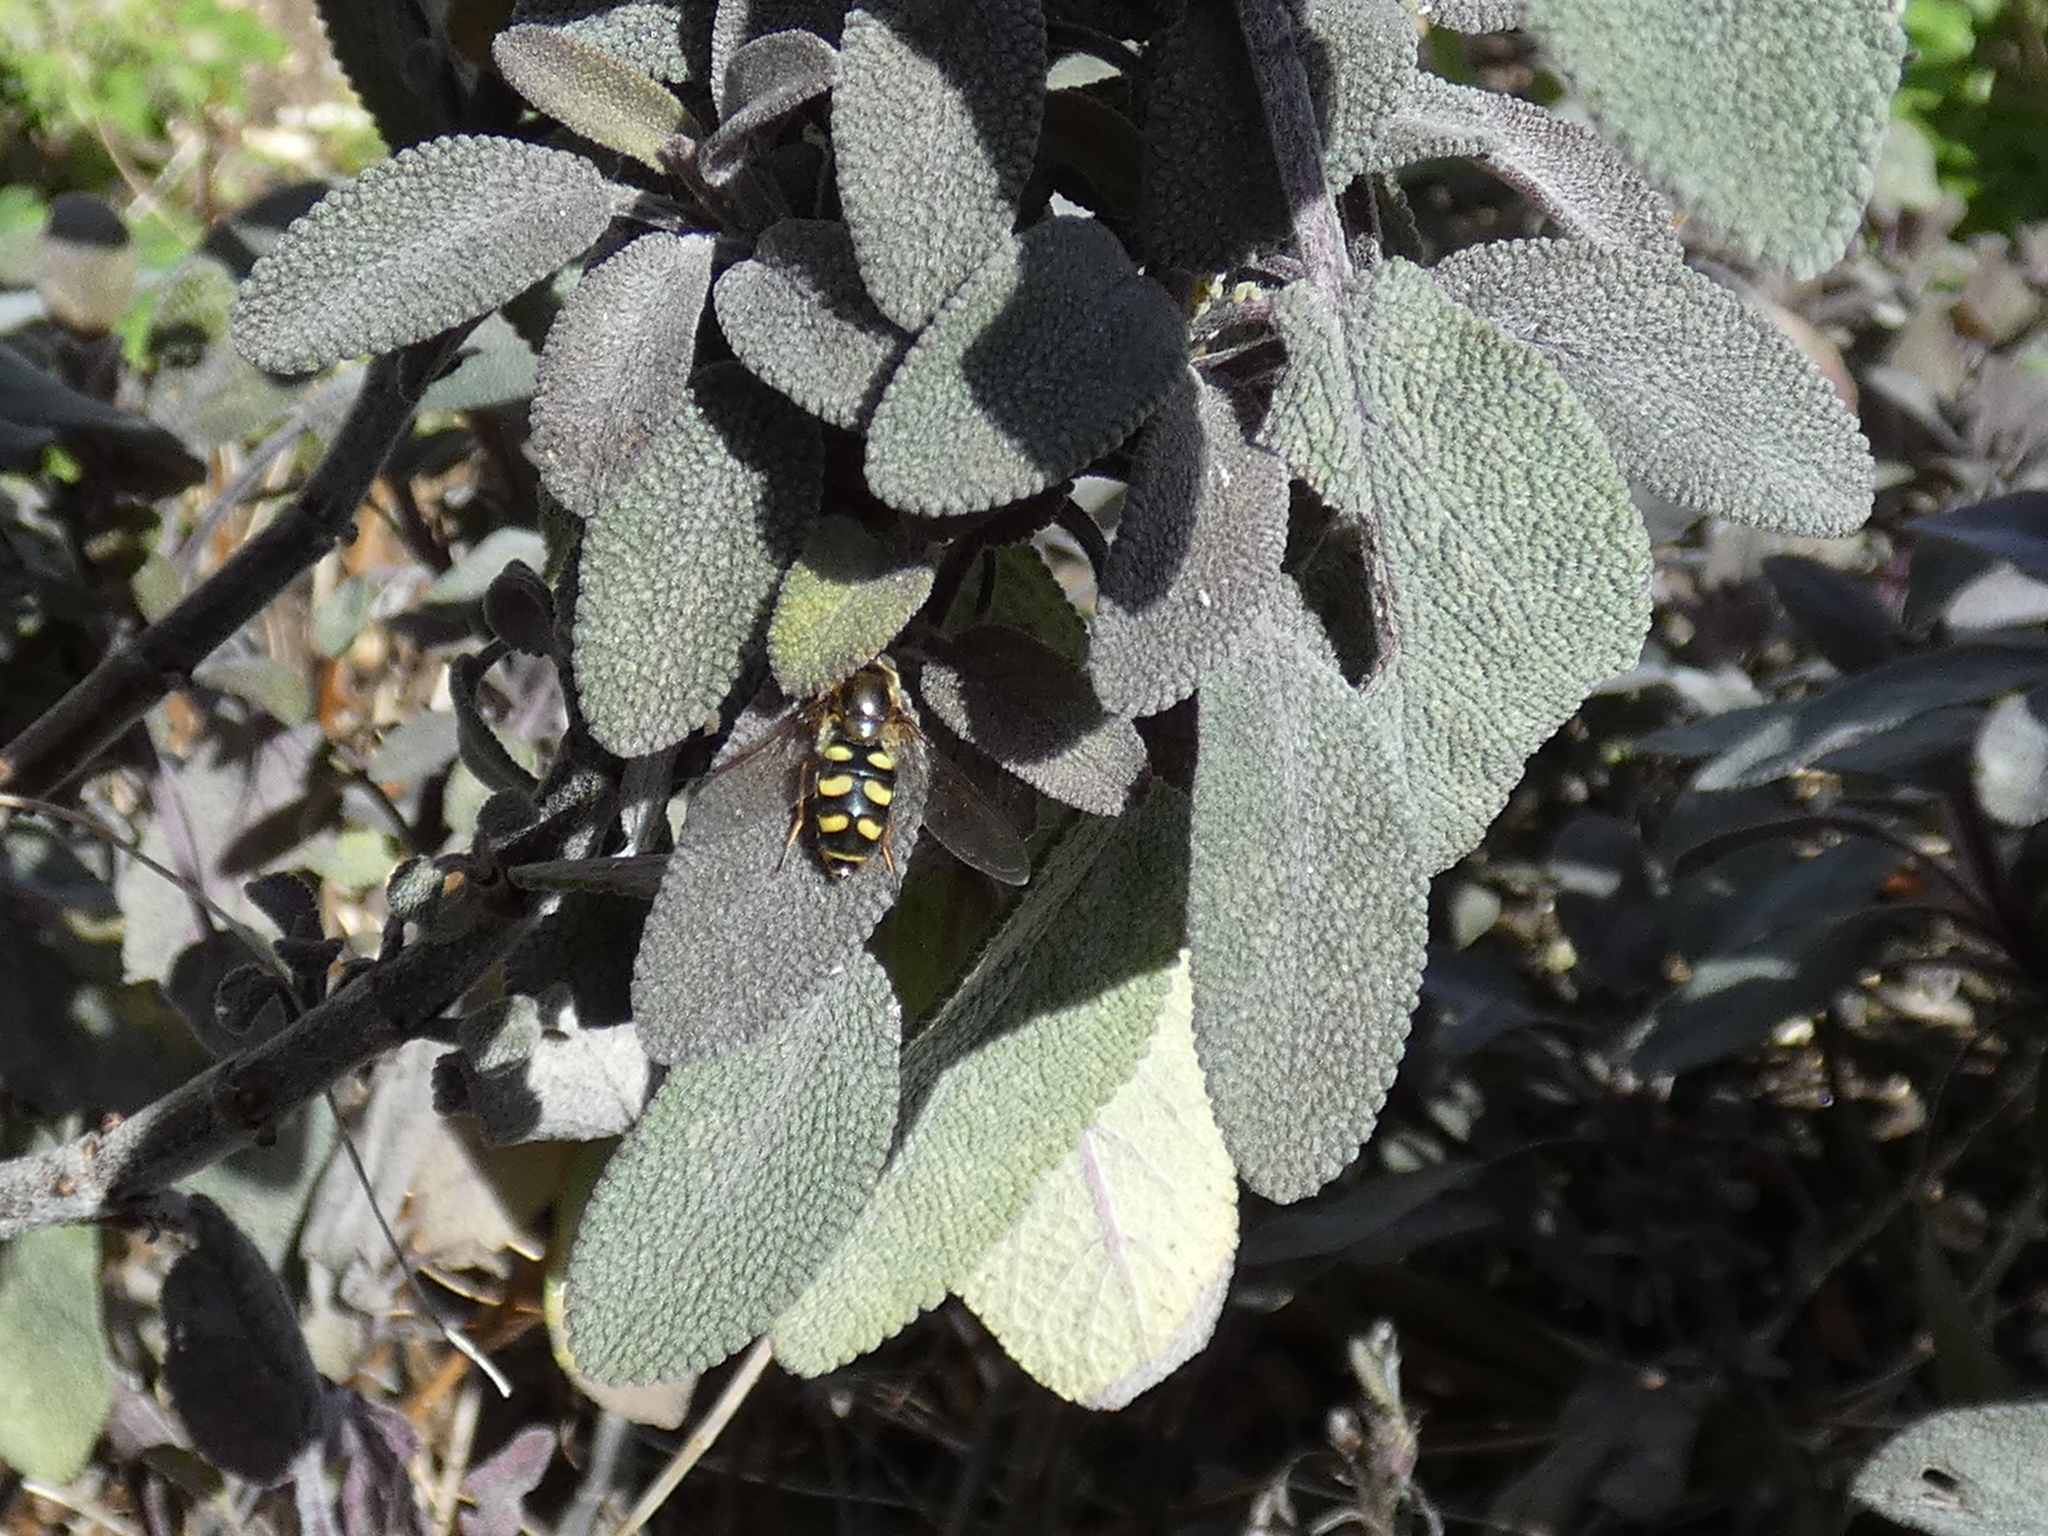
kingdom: Animalia
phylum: Arthropoda
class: Insecta
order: Diptera
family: Syrphidae
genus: Eupeodes
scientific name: Eupeodes
